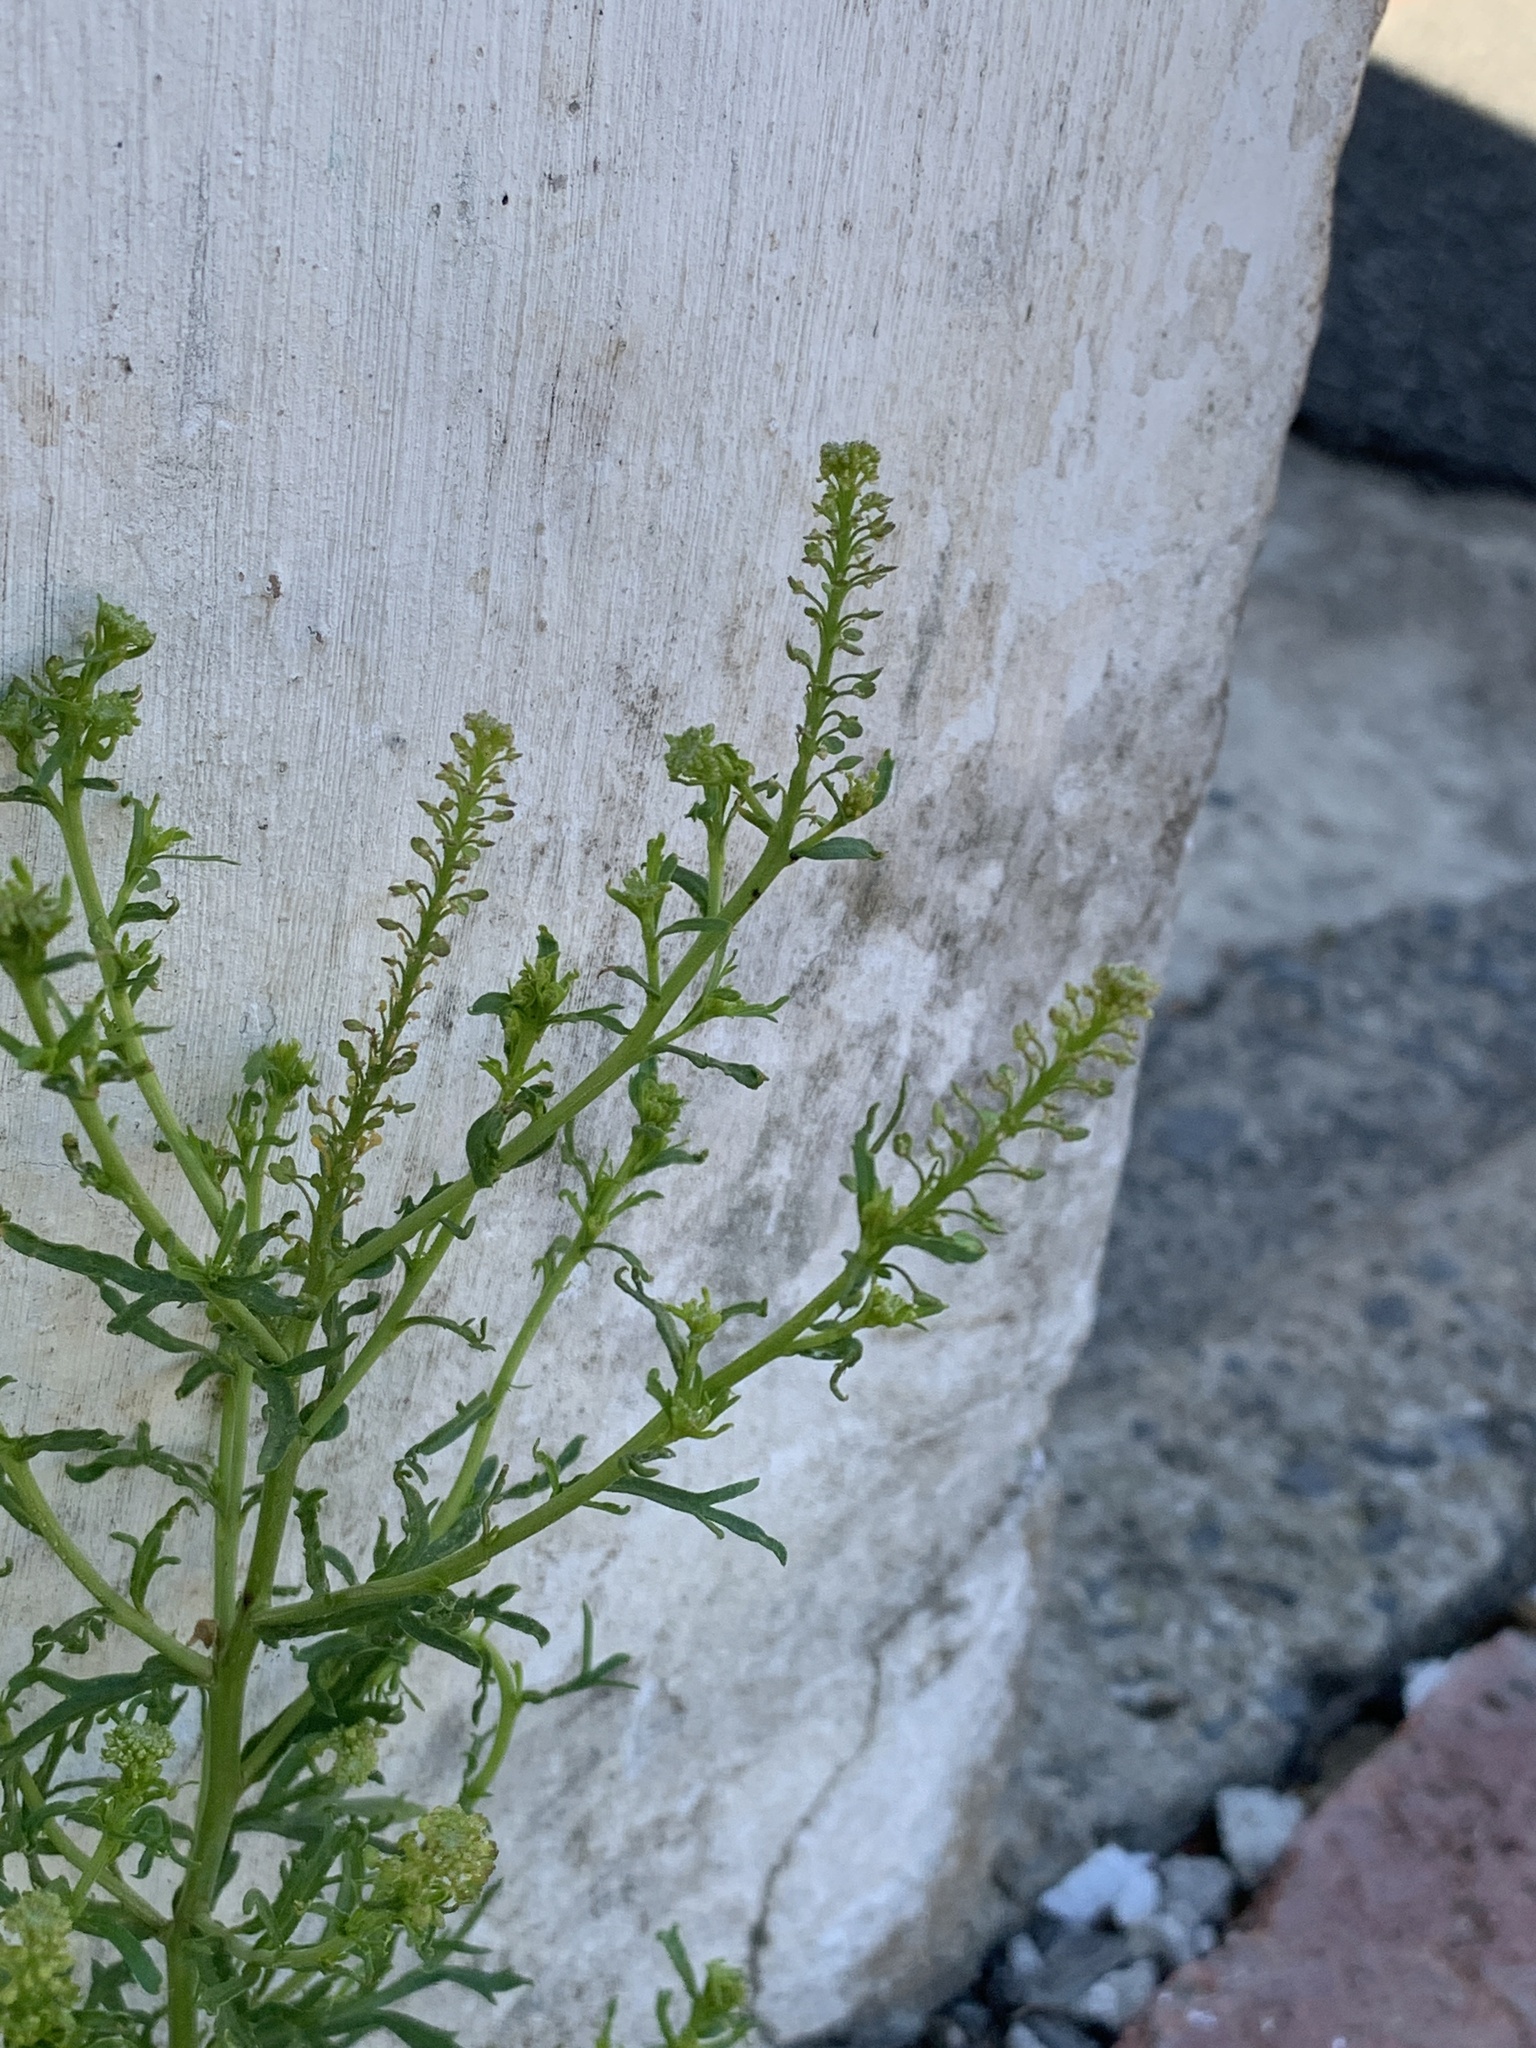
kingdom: Plantae
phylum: Tracheophyta
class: Magnoliopsida
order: Brassicales
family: Brassicaceae
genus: Lepidium
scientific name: Lepidium bonariense
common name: Argentine pepperwort
